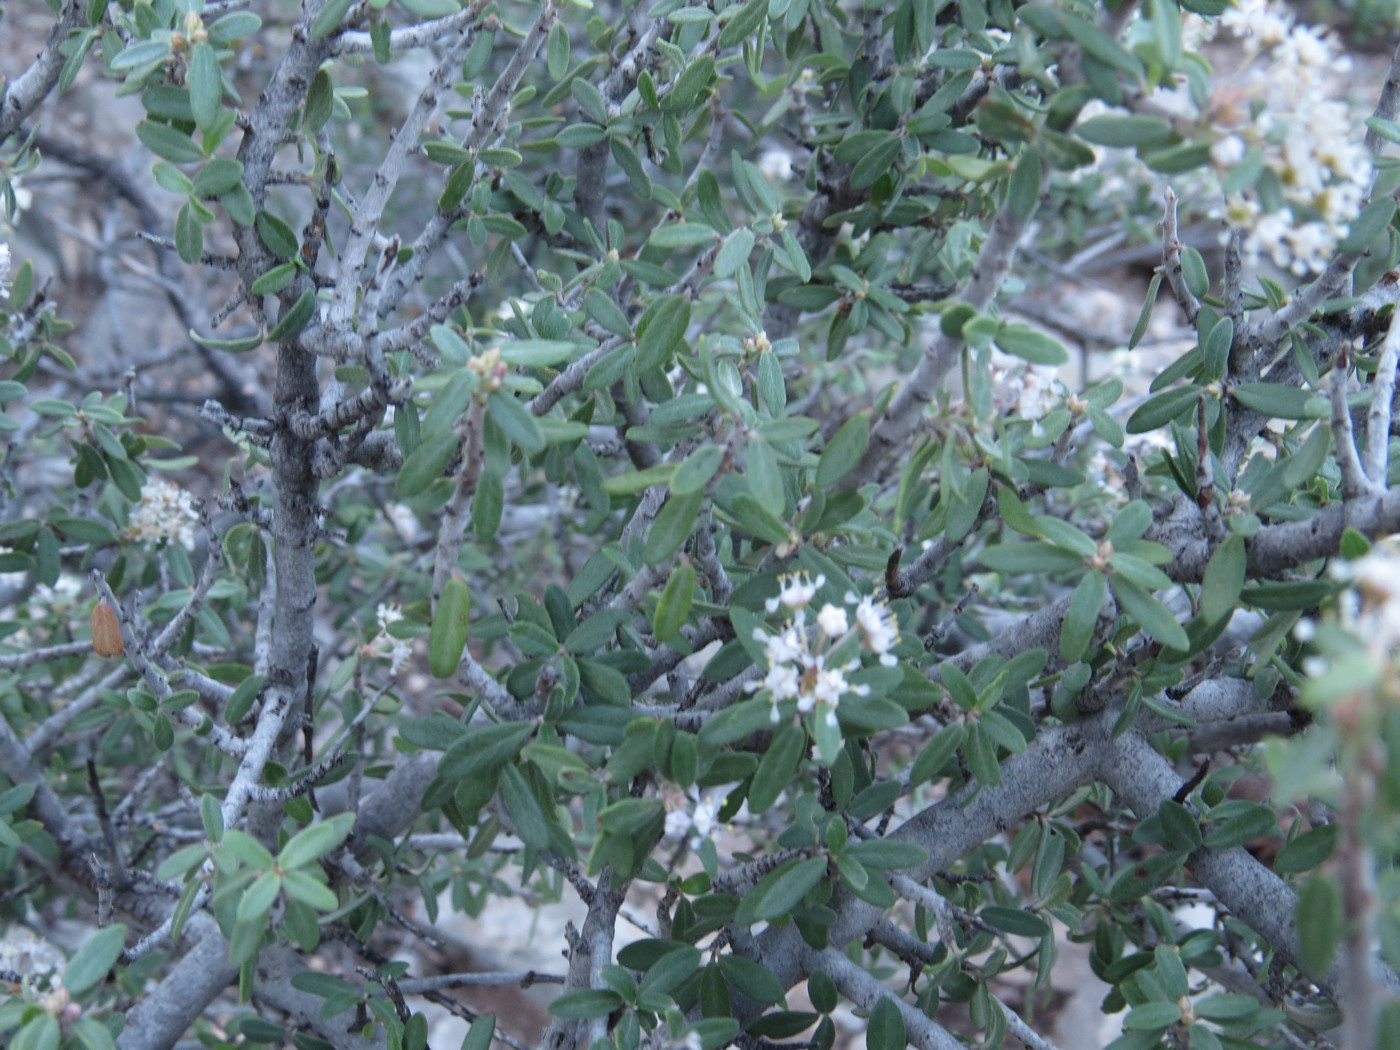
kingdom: Plantae
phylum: Tracheophyta
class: Magnoliopsida
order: Rosales
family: Rhamnaceae
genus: Ceanothus
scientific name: Ceanothus pauciflorus
